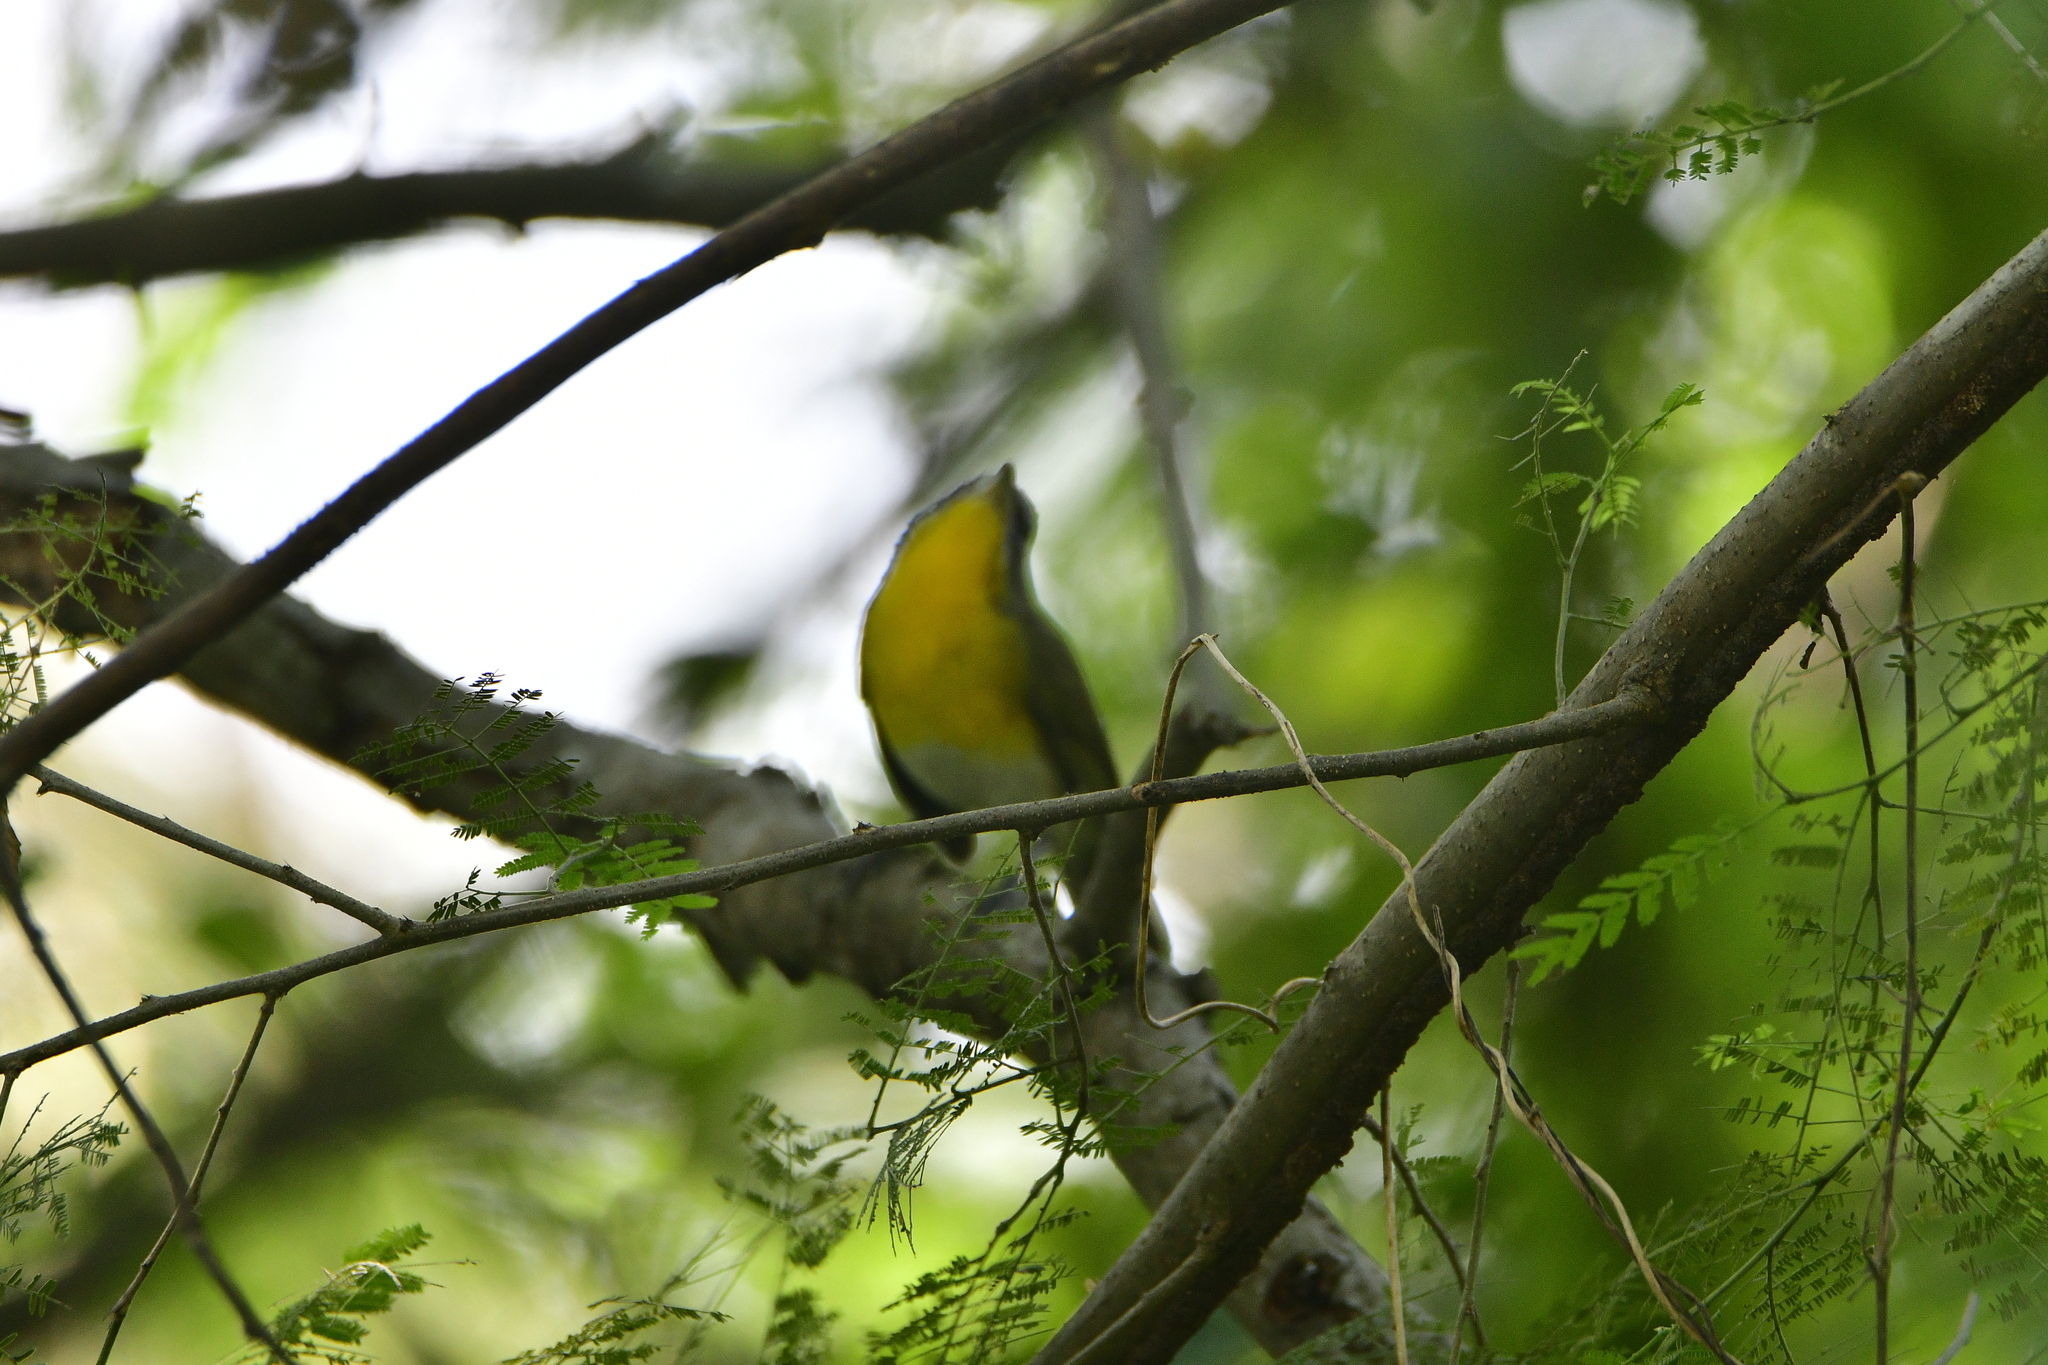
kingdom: Animalia
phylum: Chordata
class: Aves
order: Passeriformes
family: Parulidae
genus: Icteria
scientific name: Icteria virens
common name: Yellow-breasted chat
